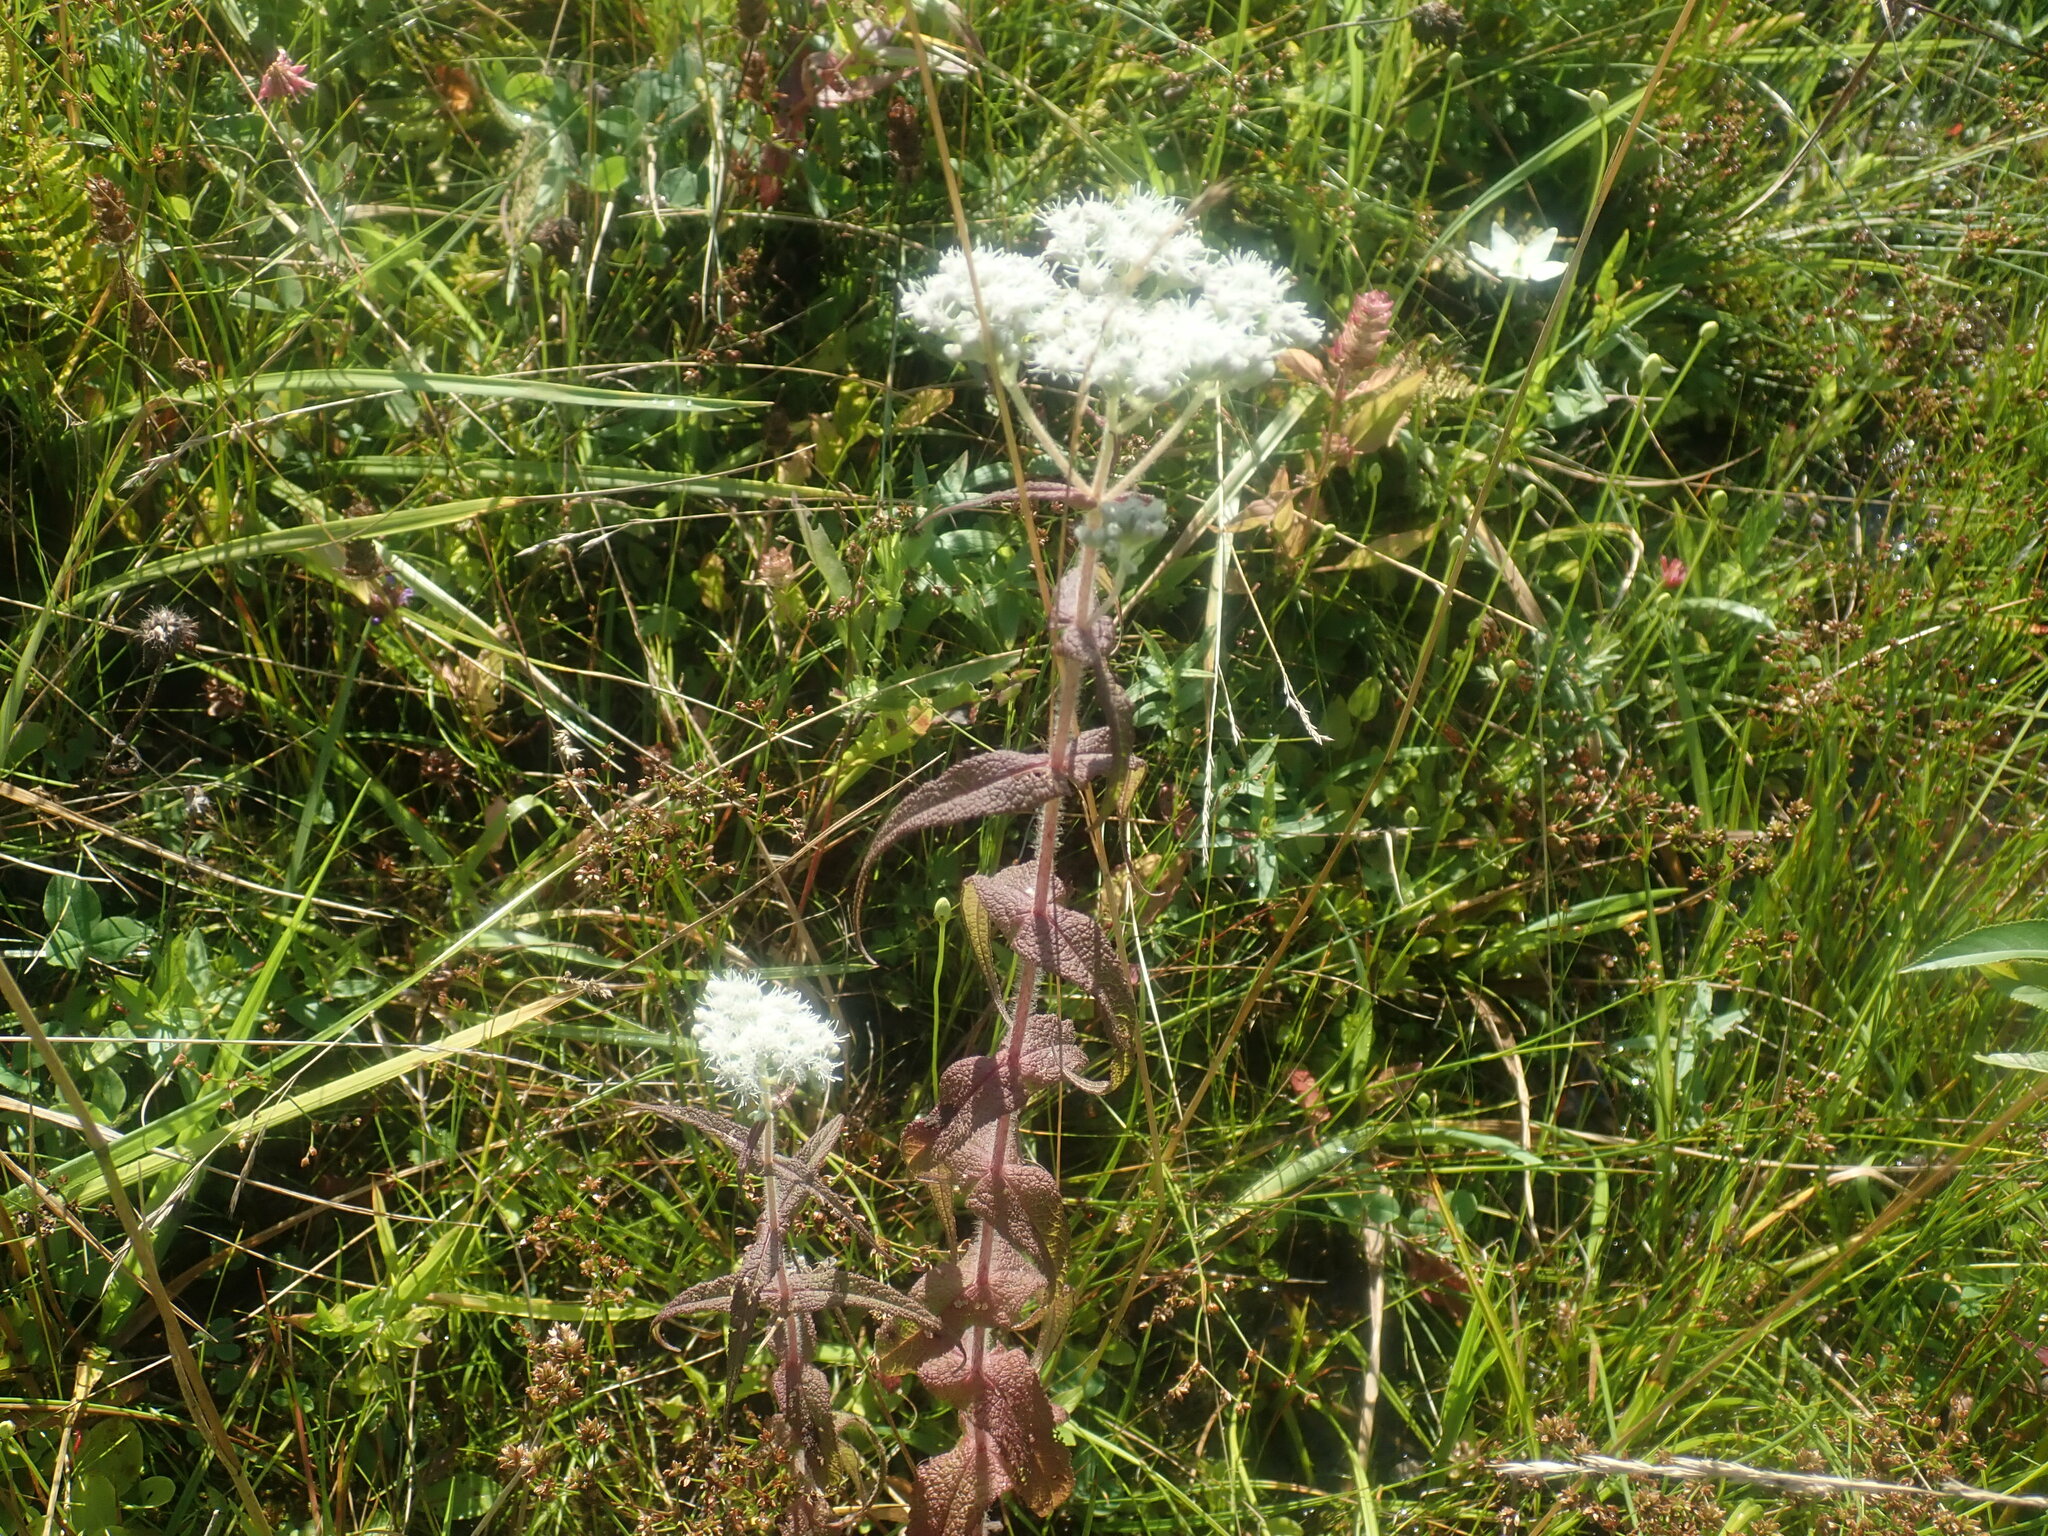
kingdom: Plantae
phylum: Tracheophyta
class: Magnoliopsida
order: Asterales
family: Asteraceae
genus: Eupatorium
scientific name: Eupatorium perfoliatum
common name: Boneset
